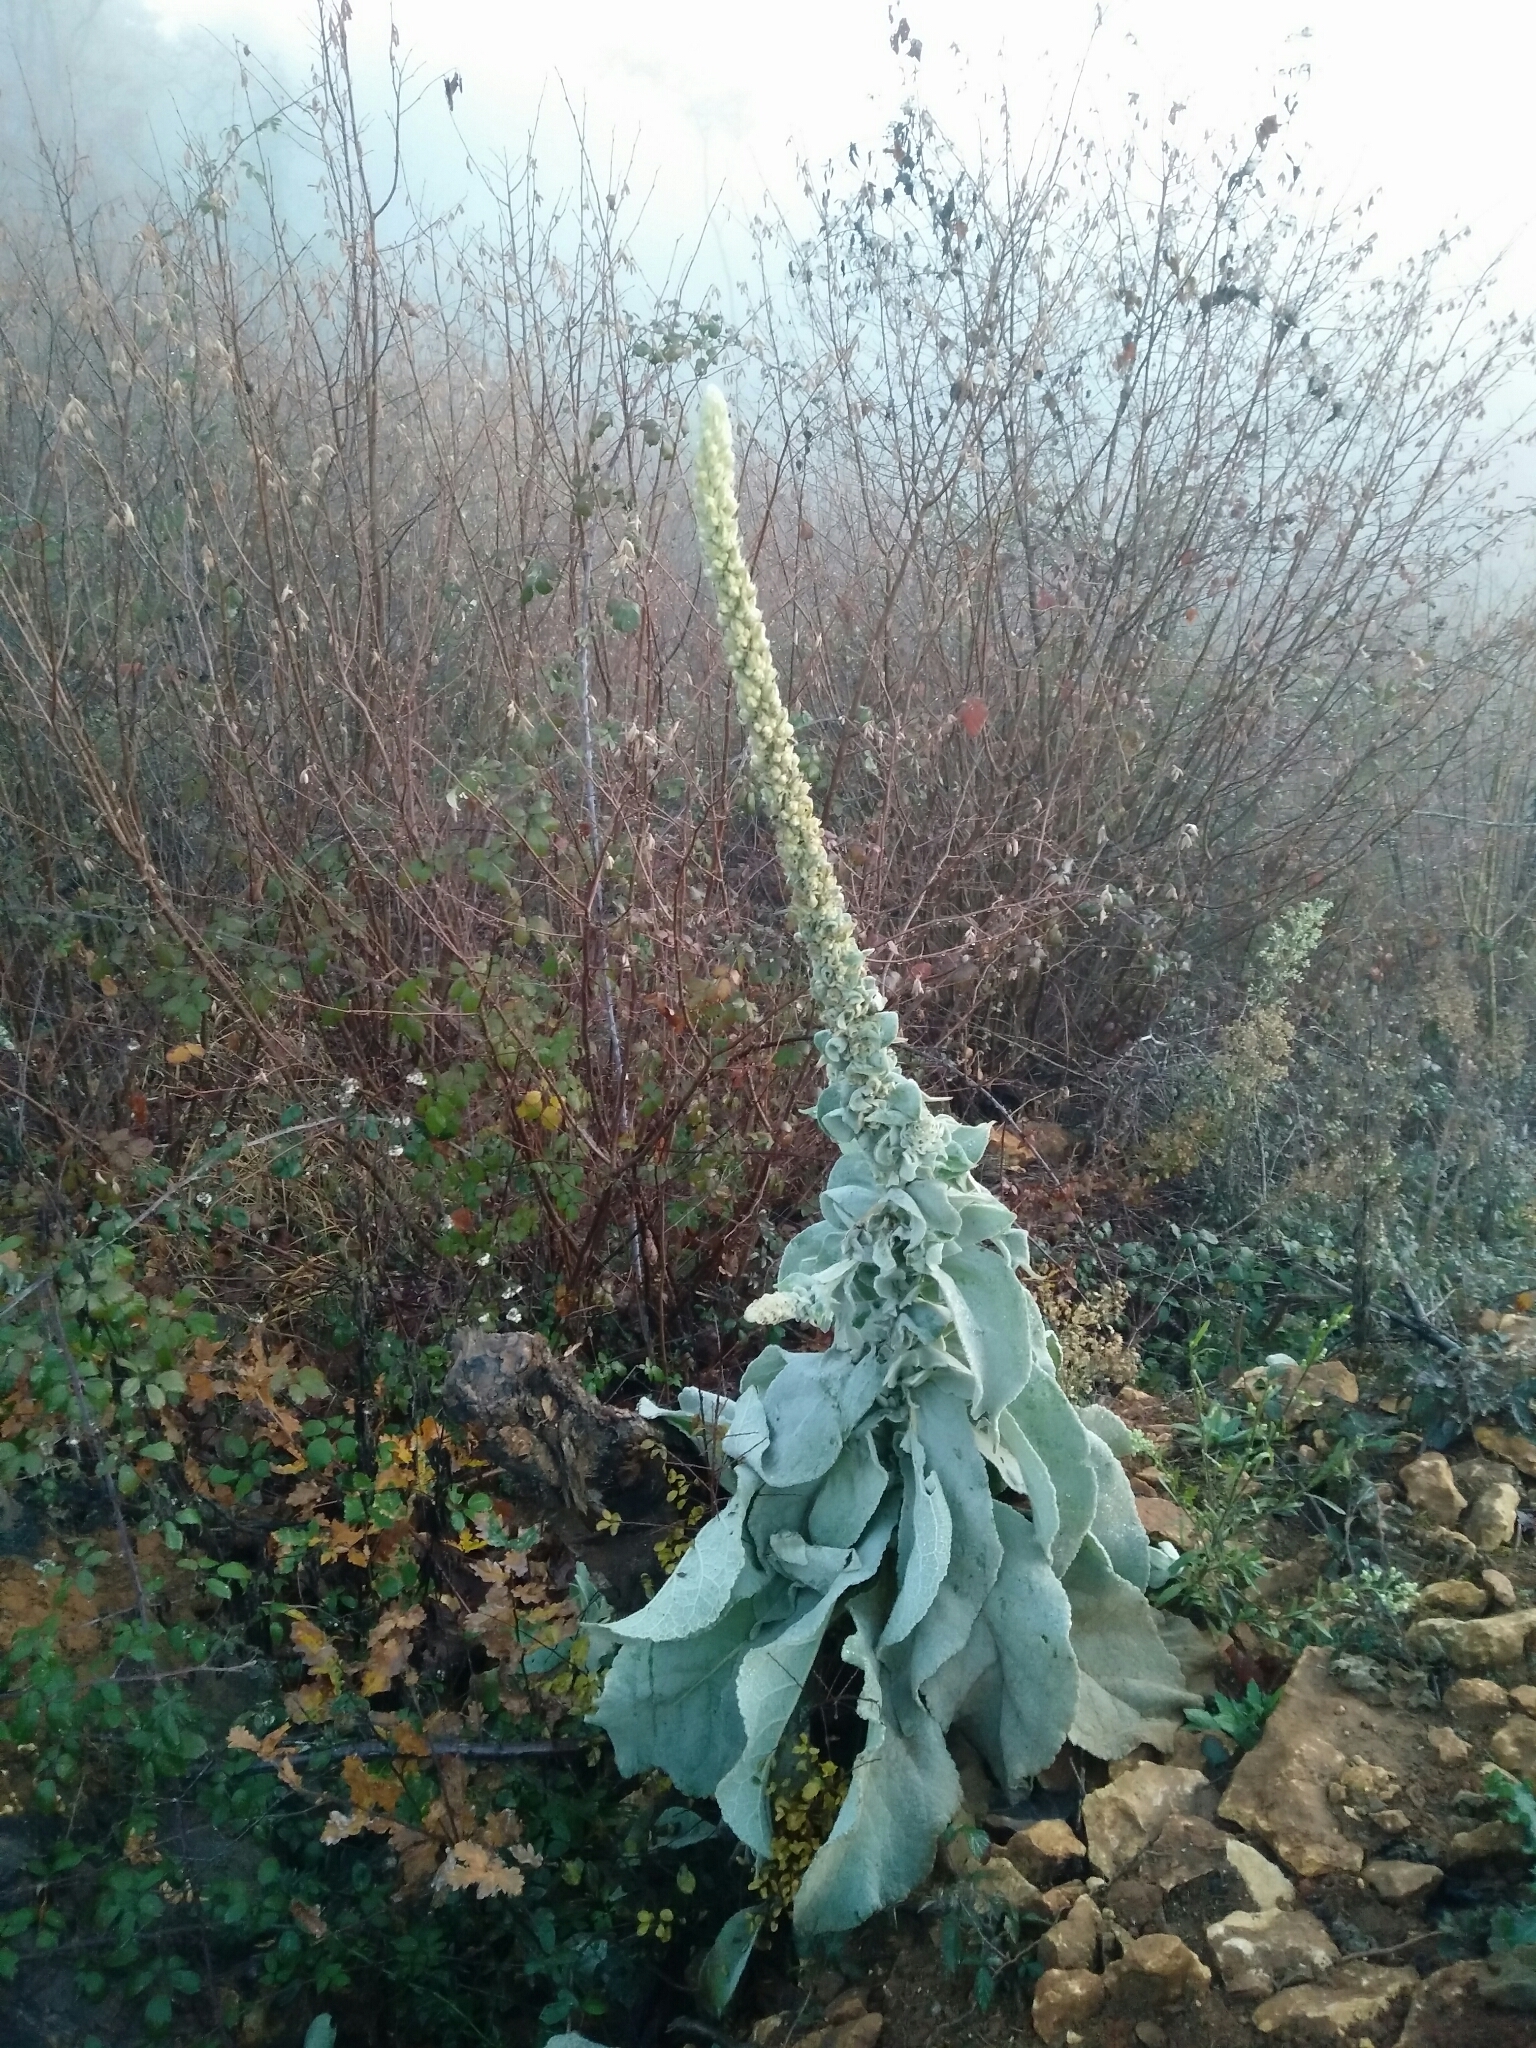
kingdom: Plantae
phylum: Tracheophyta
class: Magnoliopsida
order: Lamiales
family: Scrophulariaceae
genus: Verbascum
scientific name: Verbascum thapsus
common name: Common mullein
